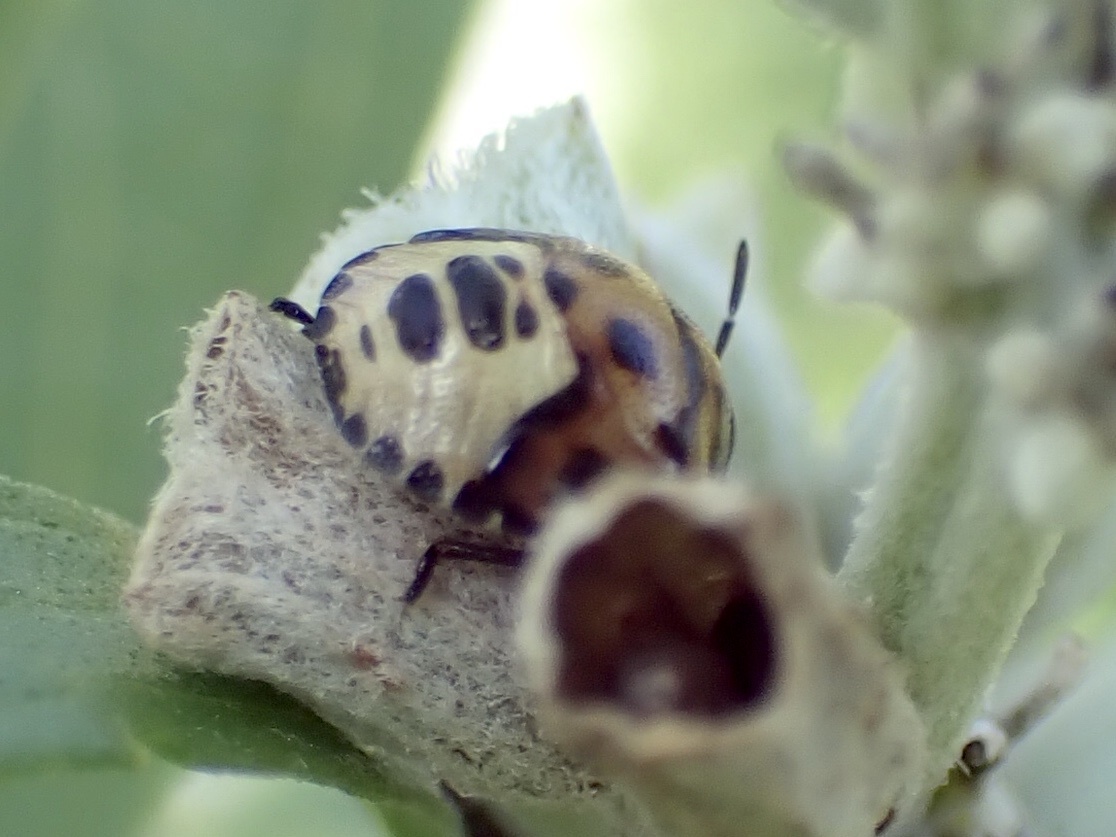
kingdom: Animalia
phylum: Arthropoda
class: Insecta
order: Hemiptera
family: Pentatomidae
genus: Cosmopepla
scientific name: Cosmopepla lintneriana
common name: Twice-stabbed stink bug
